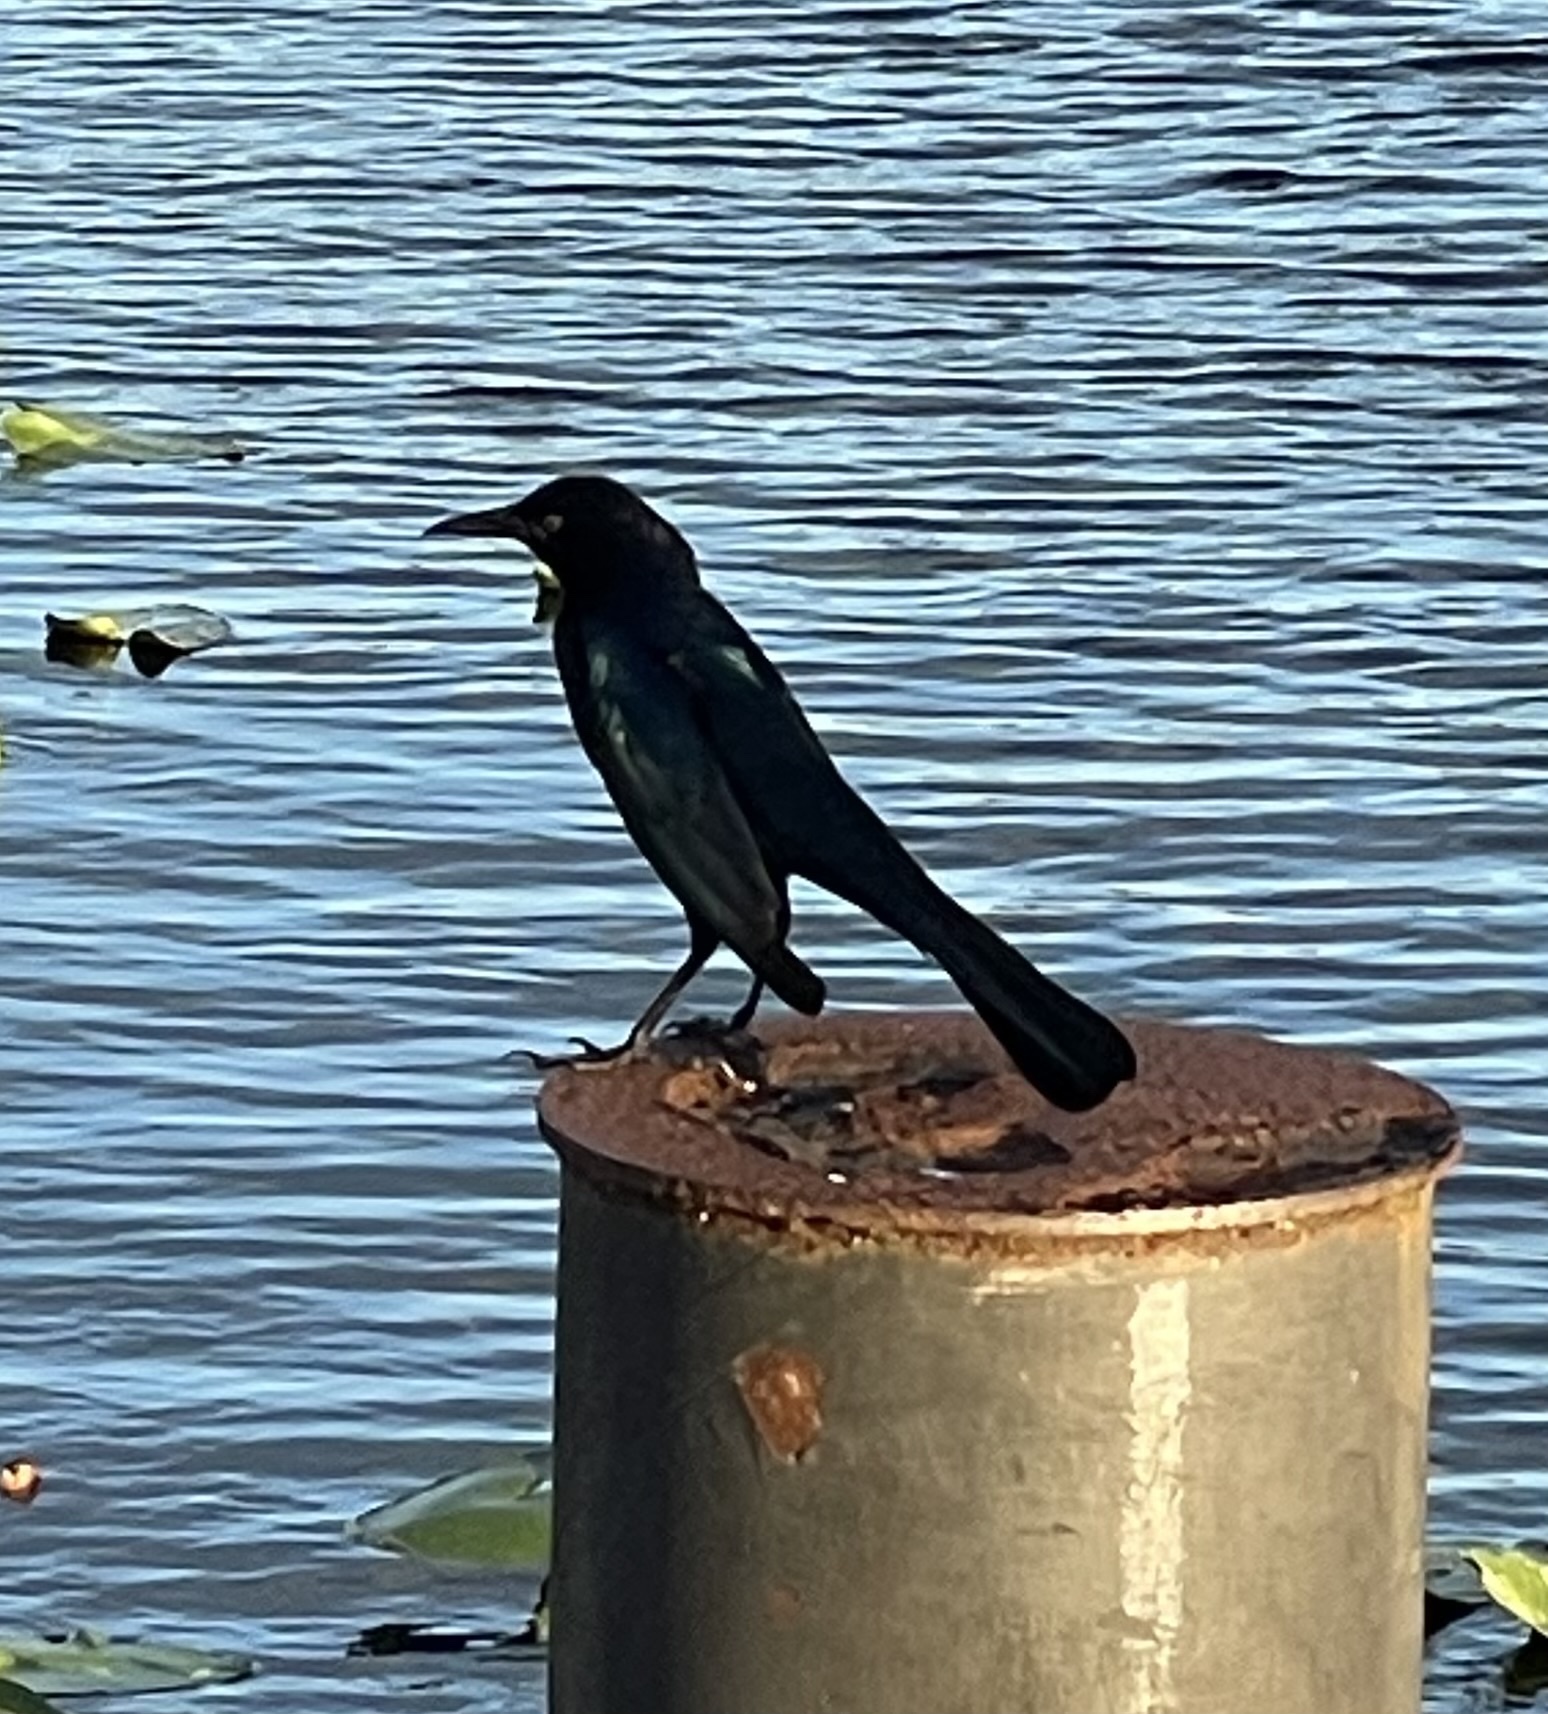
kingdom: Animalia
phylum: Chordata
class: Aves
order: Passeriformes
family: Icteridae
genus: Quiscalus
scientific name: Quiscalus major
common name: Boat-tailed grackle
